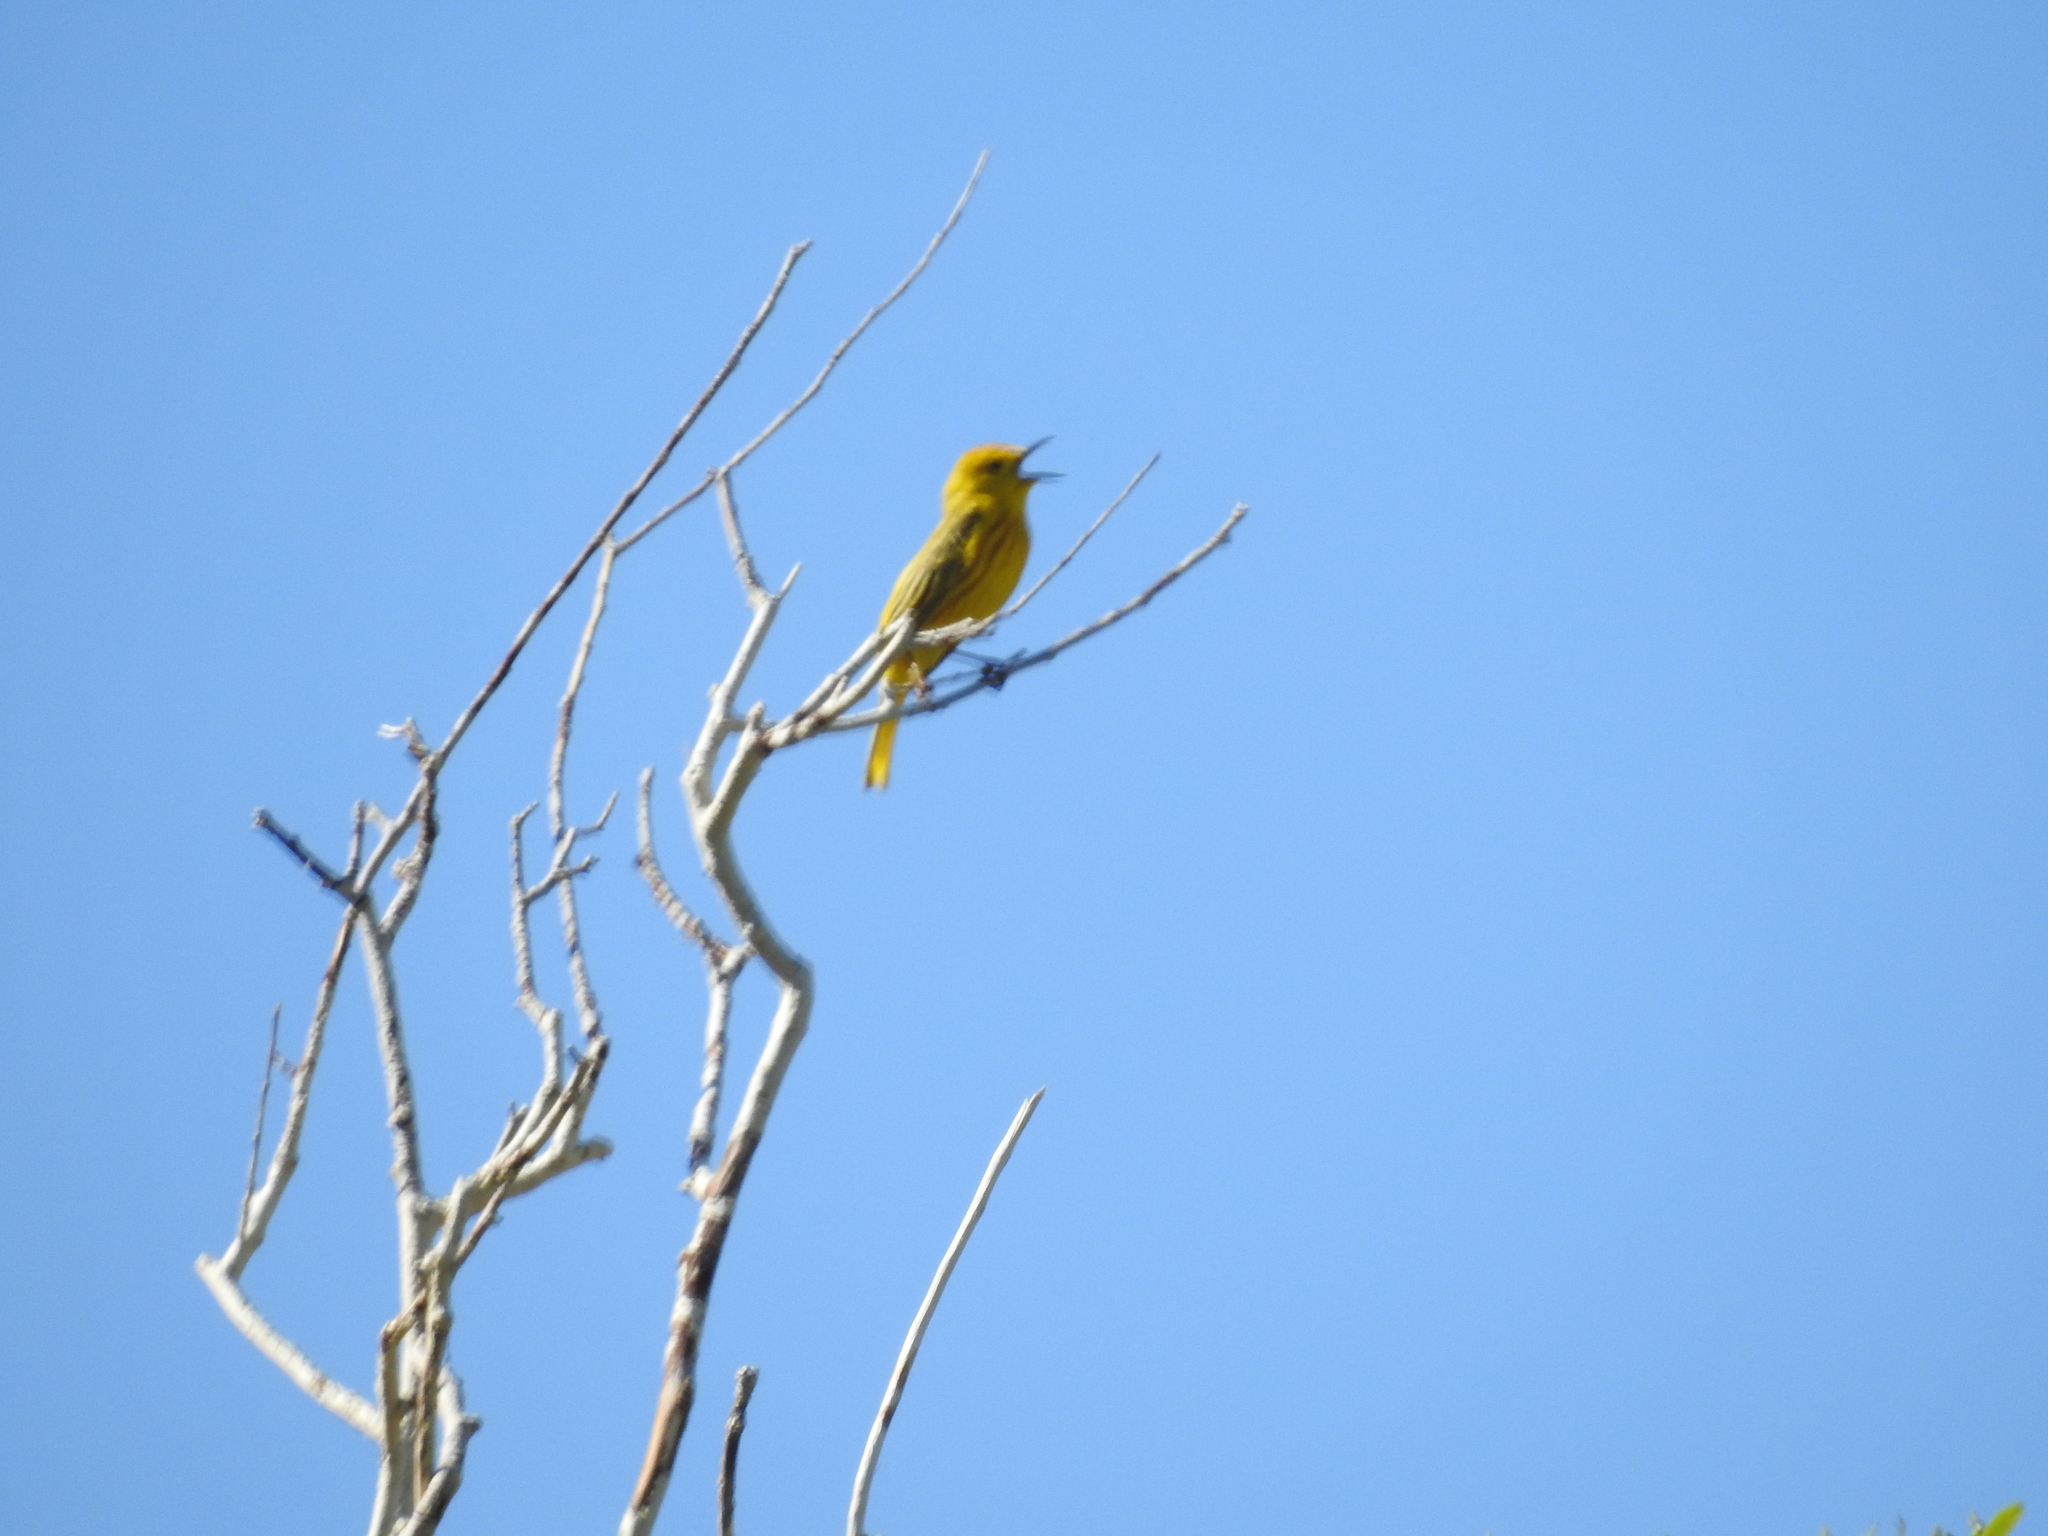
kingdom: Animalia
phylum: Chordata
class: Aves
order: Passeriformes
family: Parulidae
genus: Setophaga
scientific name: Setophaga petechia
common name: Yellow warbler
